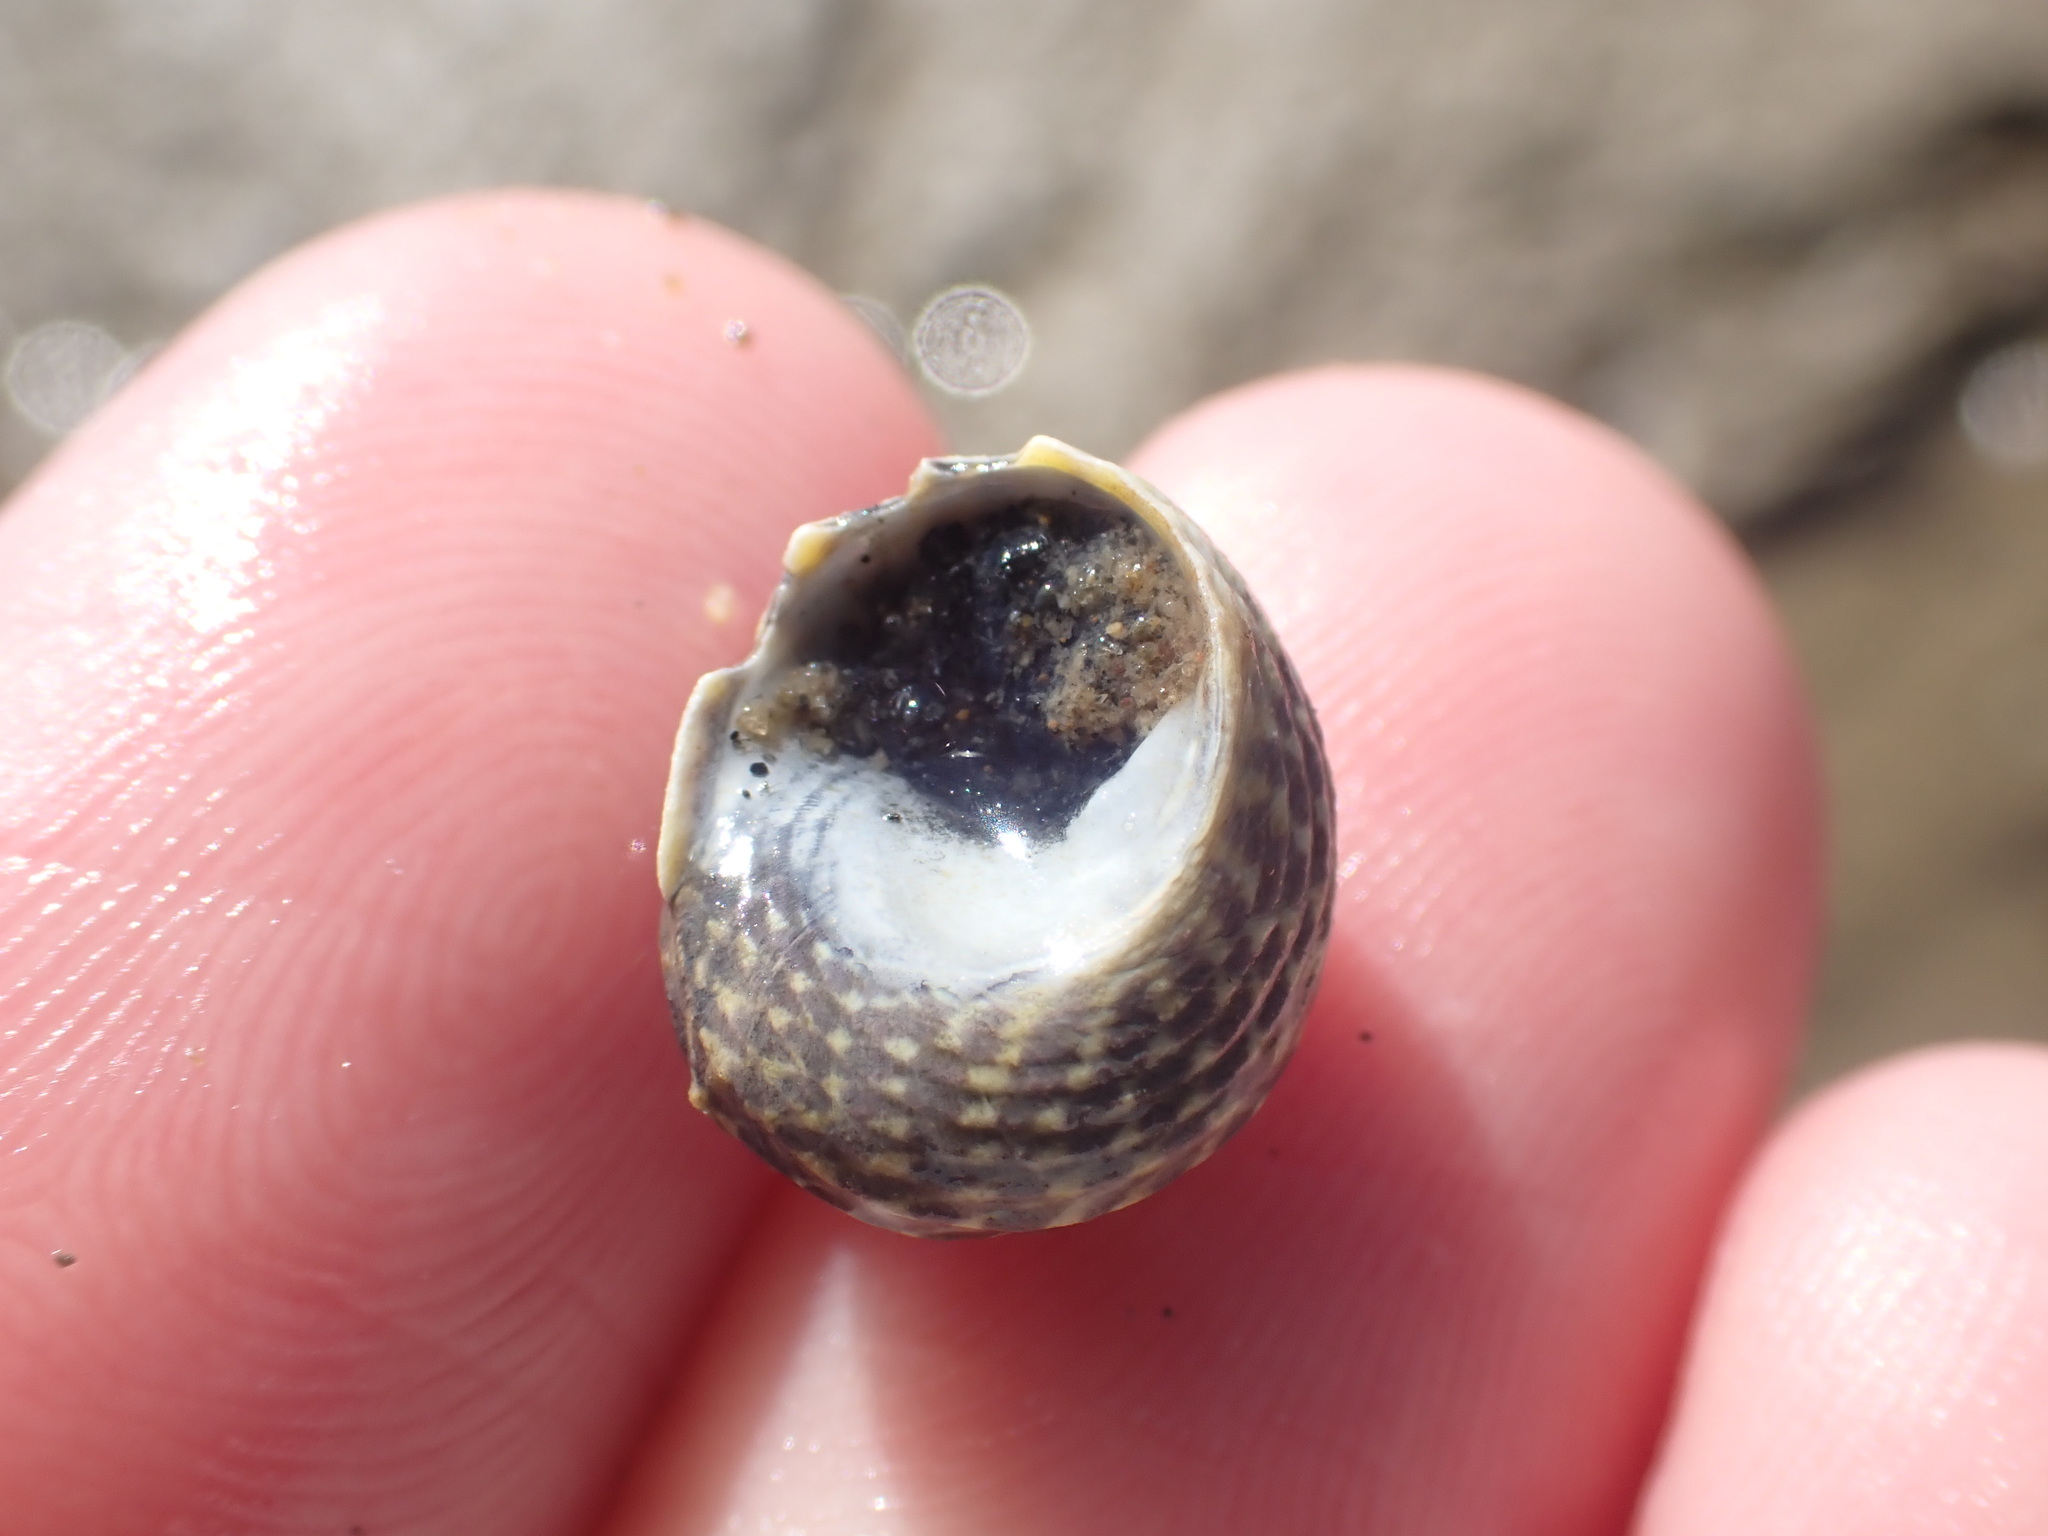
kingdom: Animalia
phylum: Mollusca
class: Gastropoda
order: Trochida
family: Trochidae
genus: Diloma
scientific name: Diloma subrostratum
